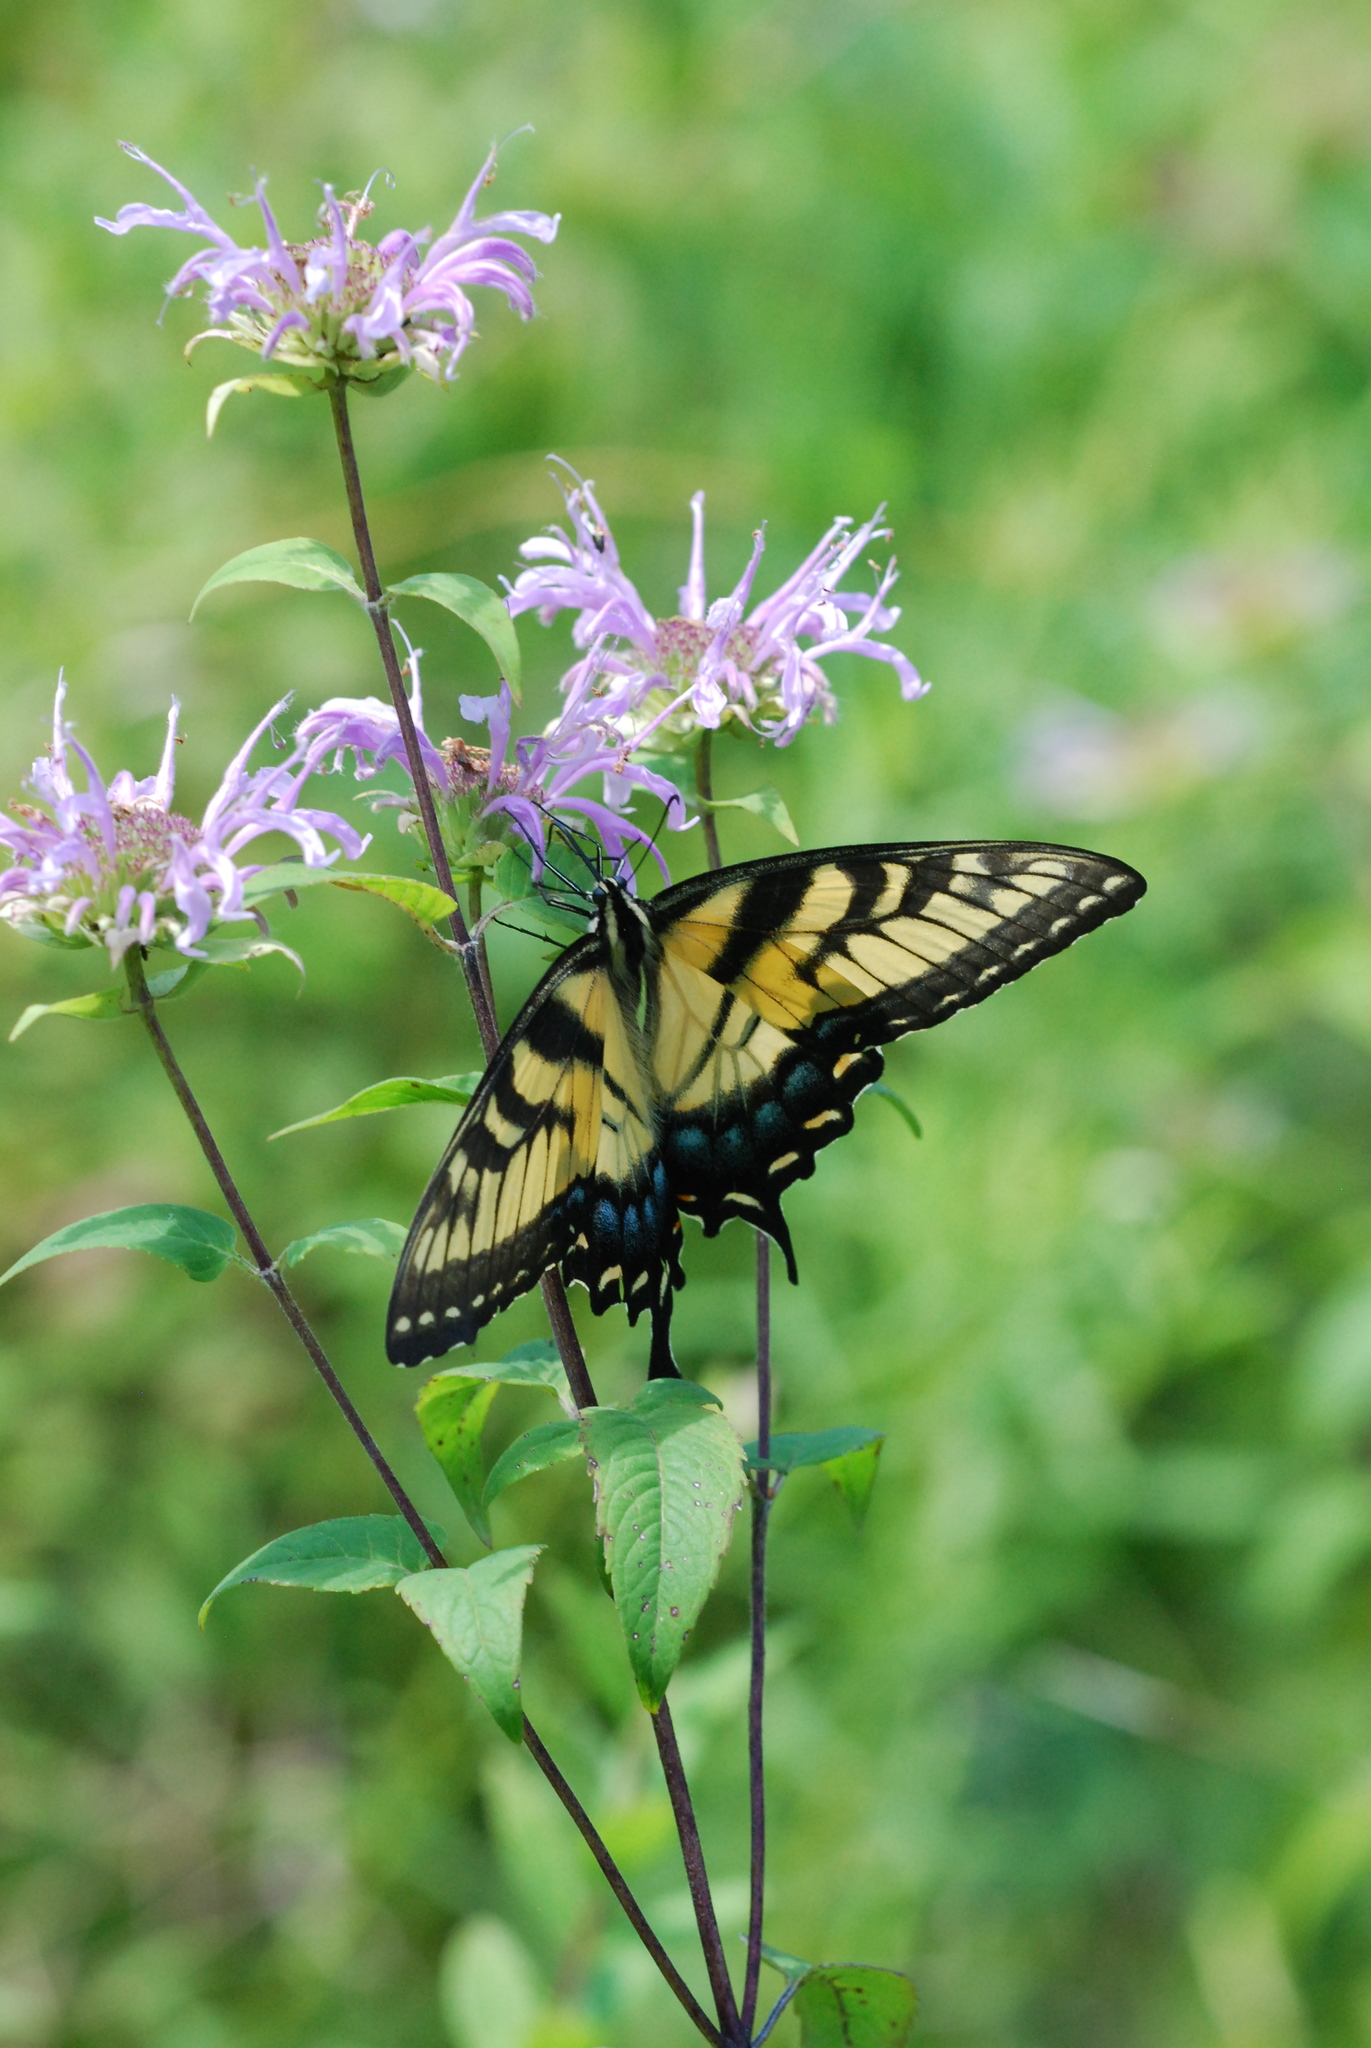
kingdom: Animalia
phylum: Arthropoda
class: Insecta
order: Lepidoptera
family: Papilionidae
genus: Papilio
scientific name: Papilio glaucus
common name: Tiger swallowtail
